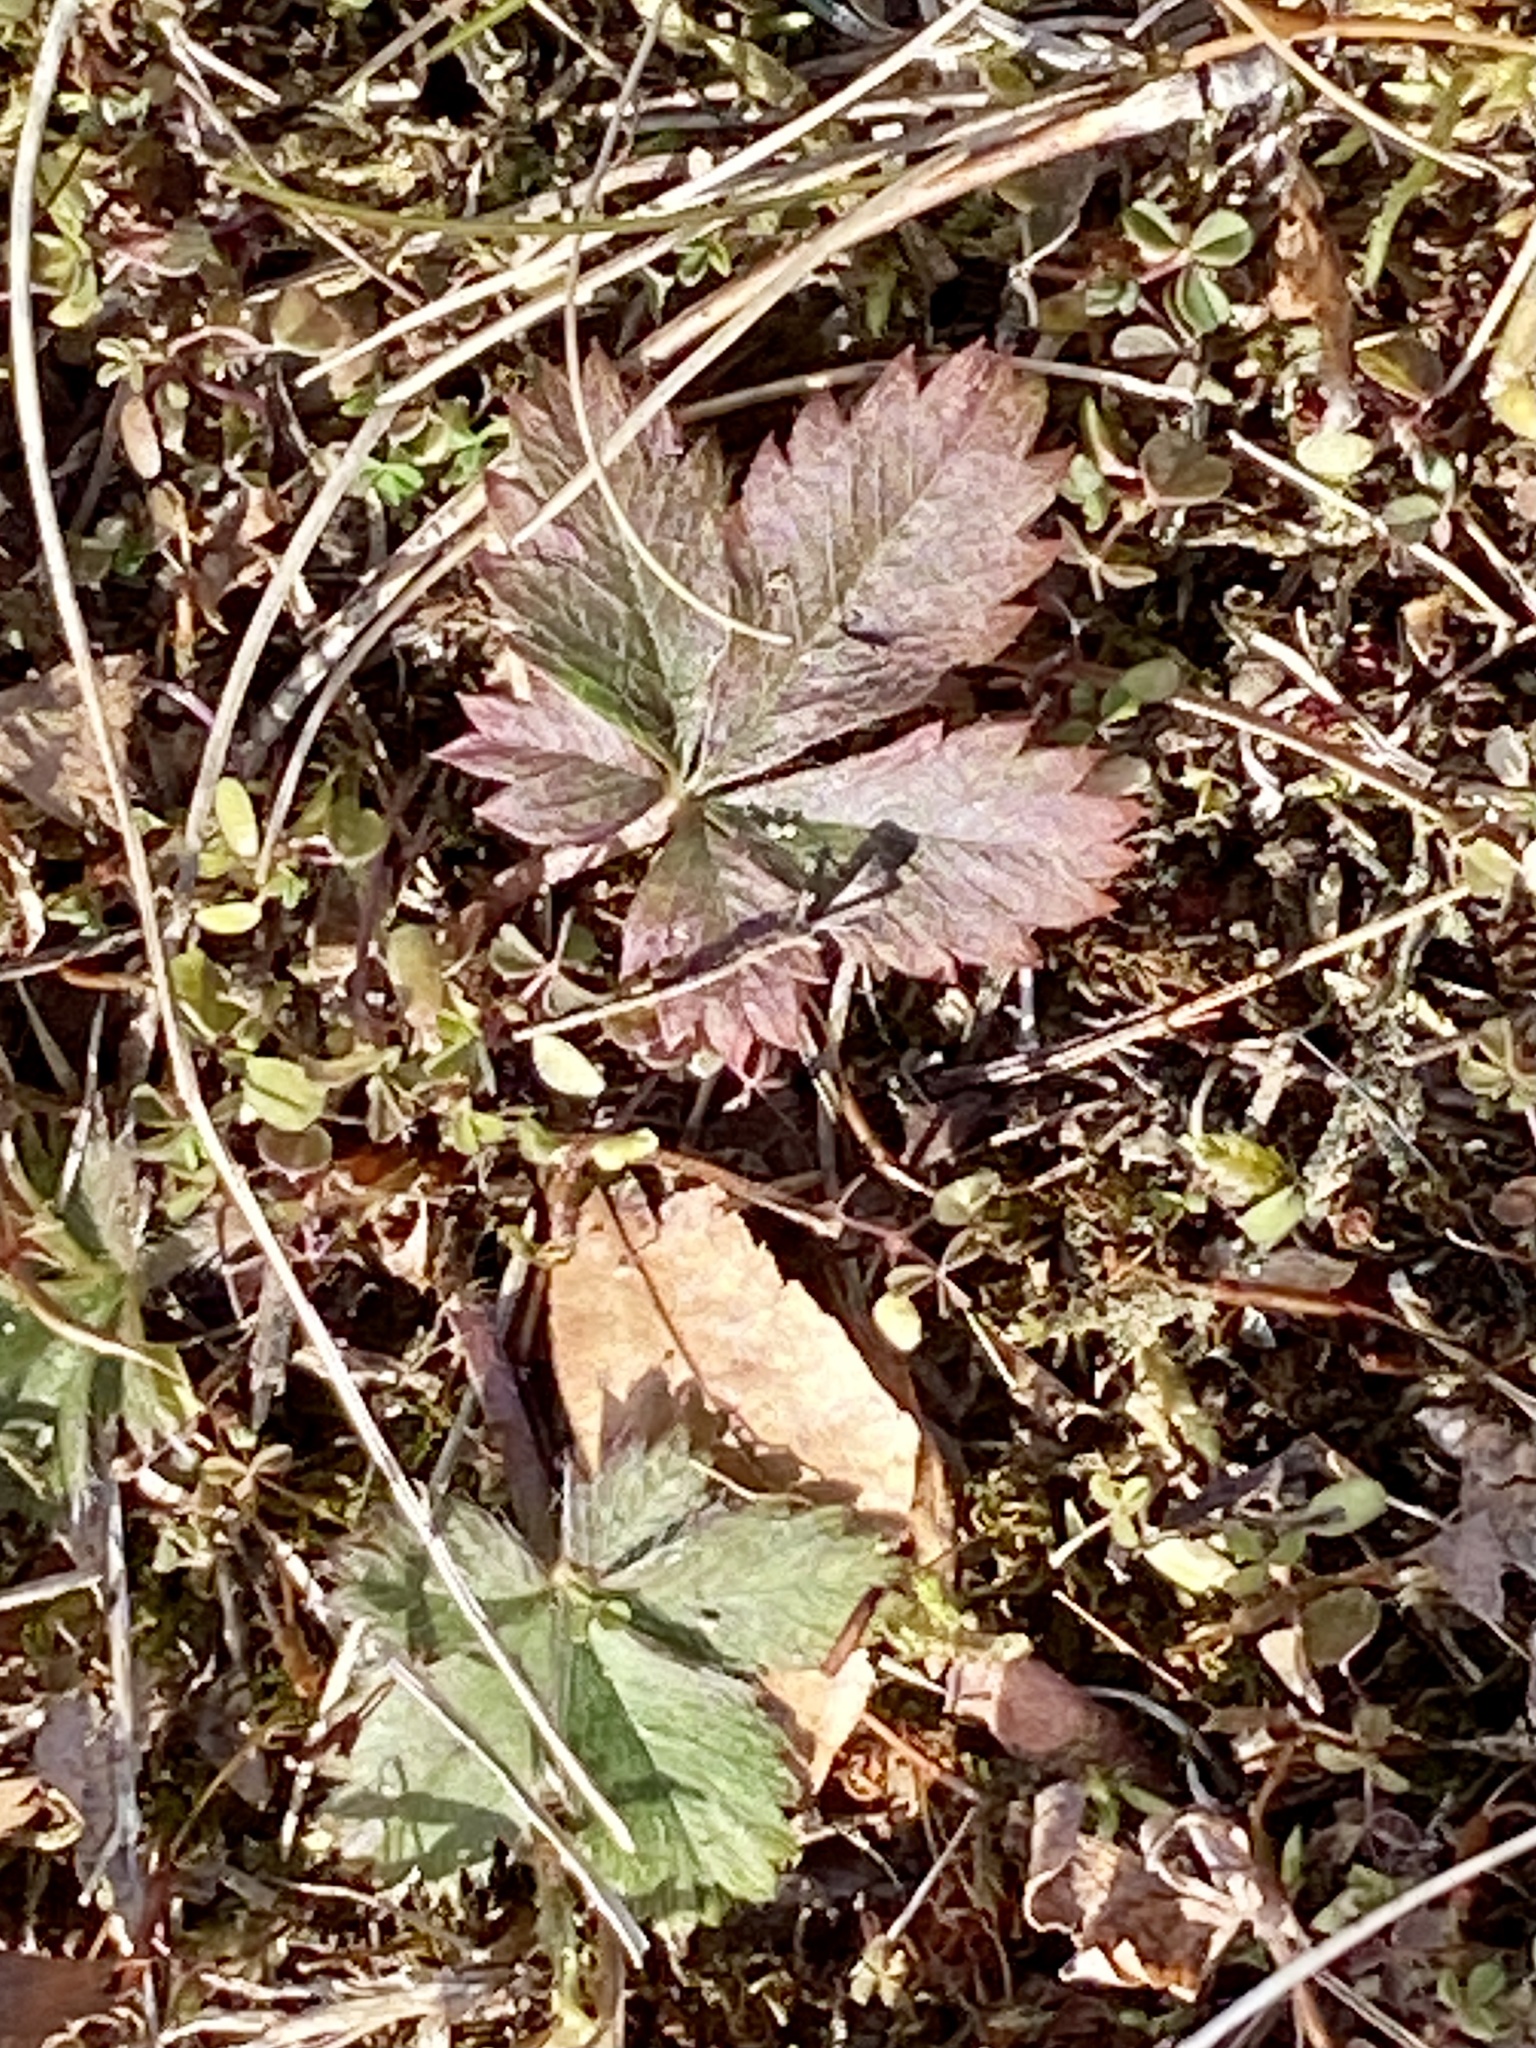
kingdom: Plantae
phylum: Tracheophyta
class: Magnoliopsida
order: Rosales
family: Rosaceae
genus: Potentilla
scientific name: Potentilla canadensis
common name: Canada cinquefoil
